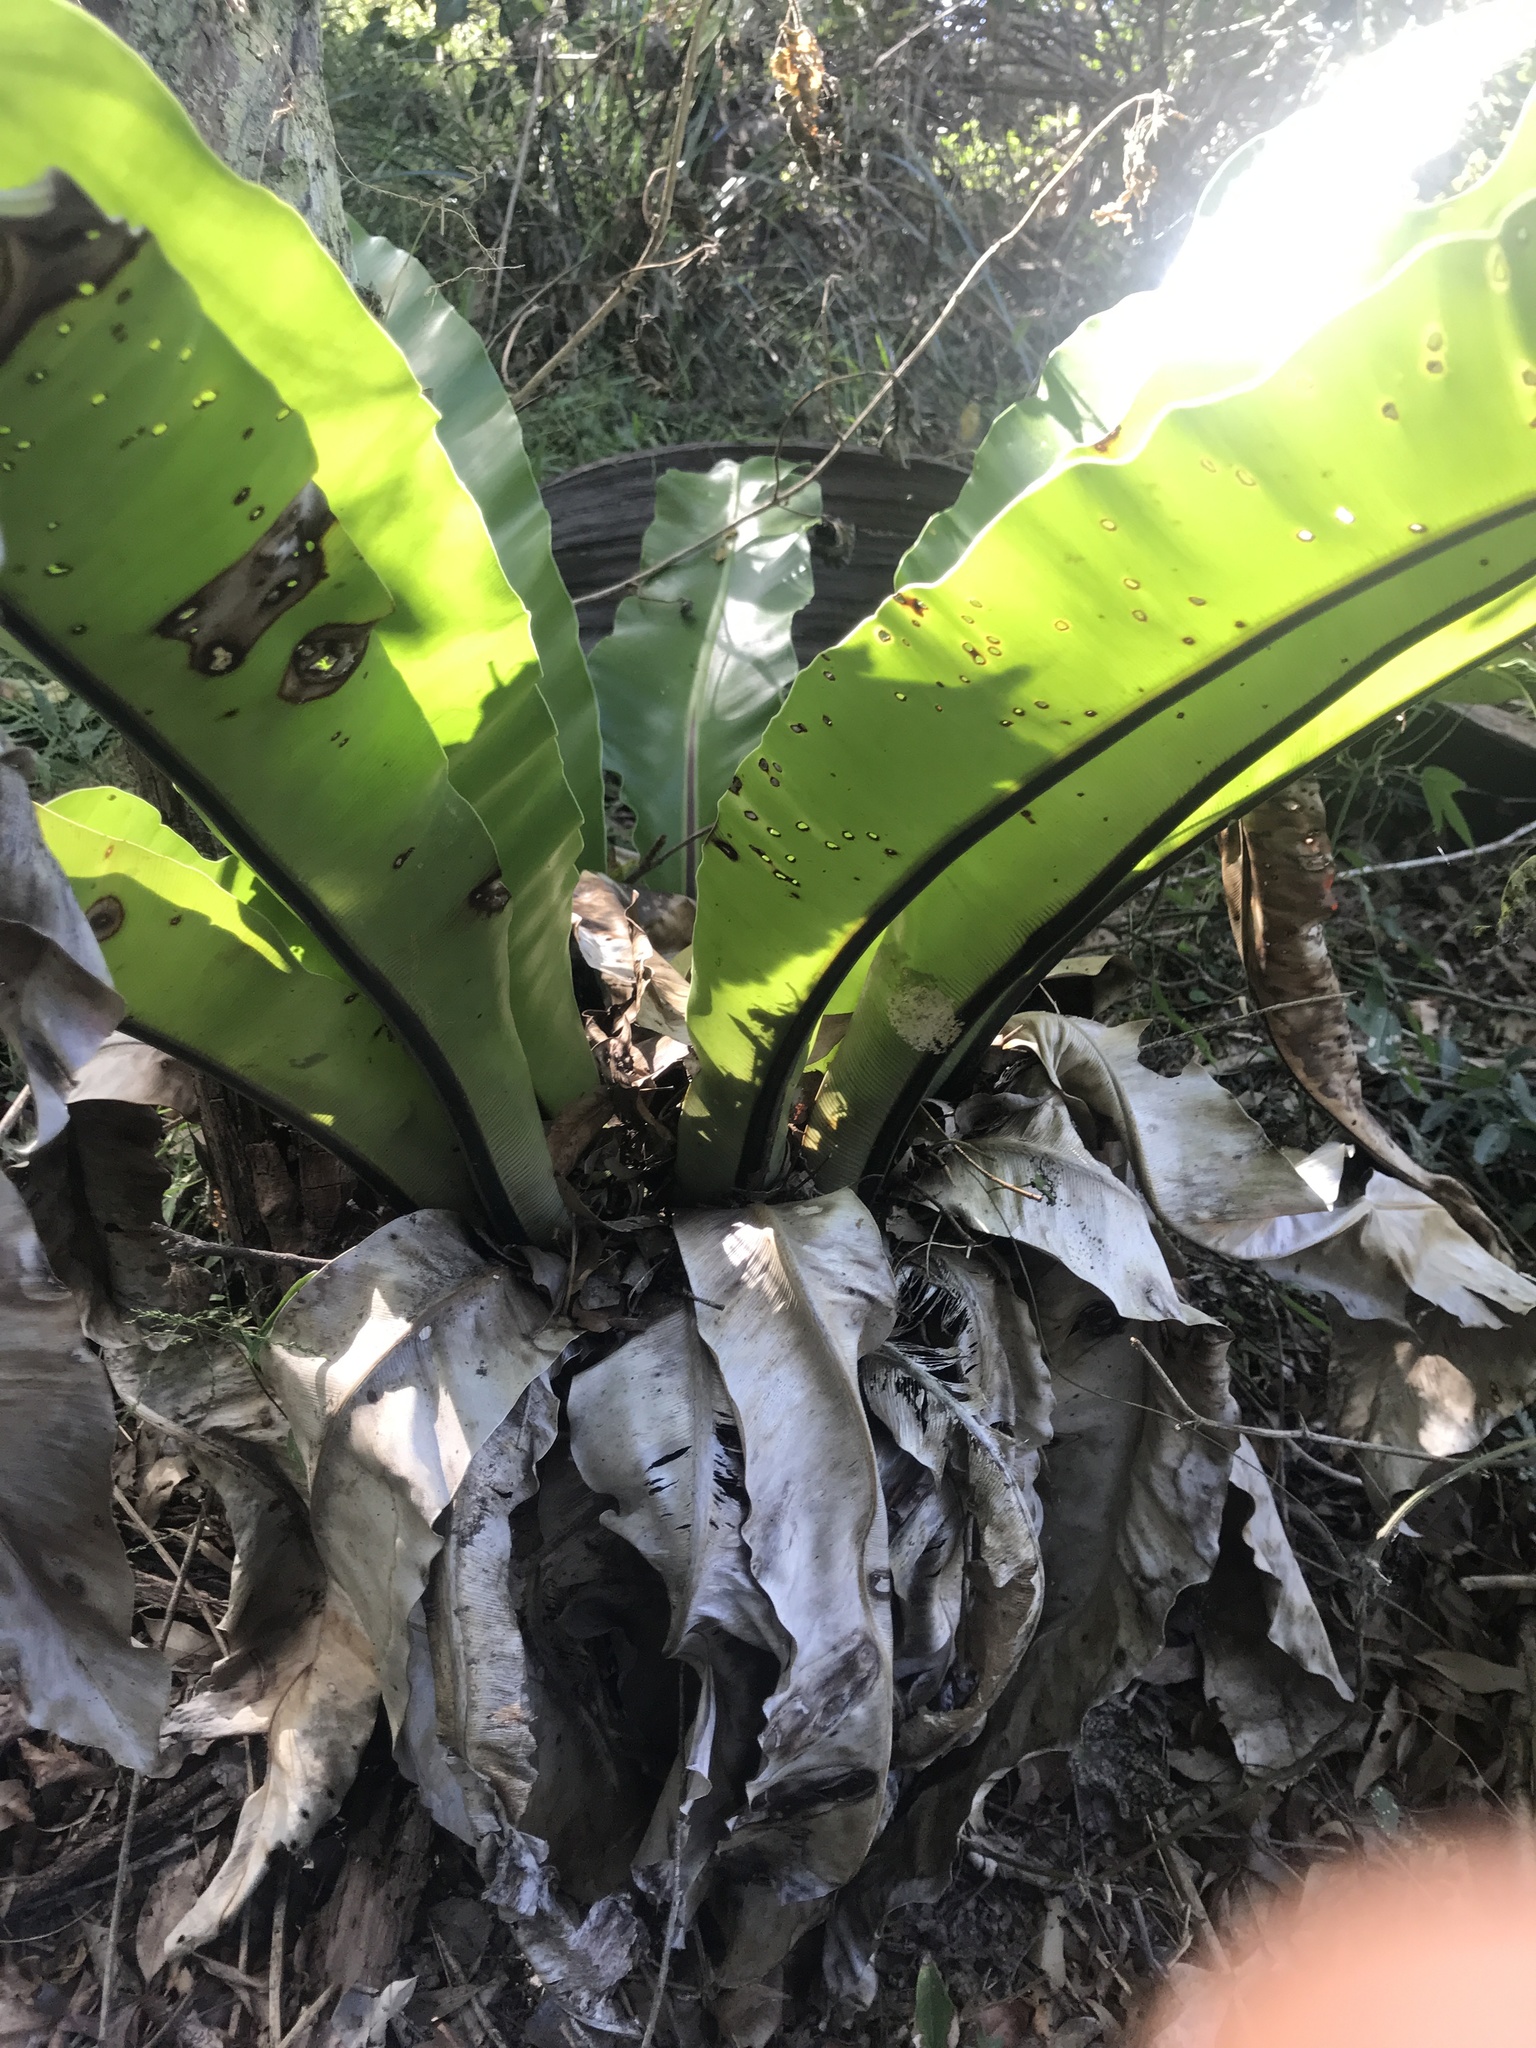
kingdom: Plantae
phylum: Tracheophyta
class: Polypodiopsida
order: Polypodiales
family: Aspleniaceae
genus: Asplenium
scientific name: Asplenium australasicum
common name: Bird's-nest fern
